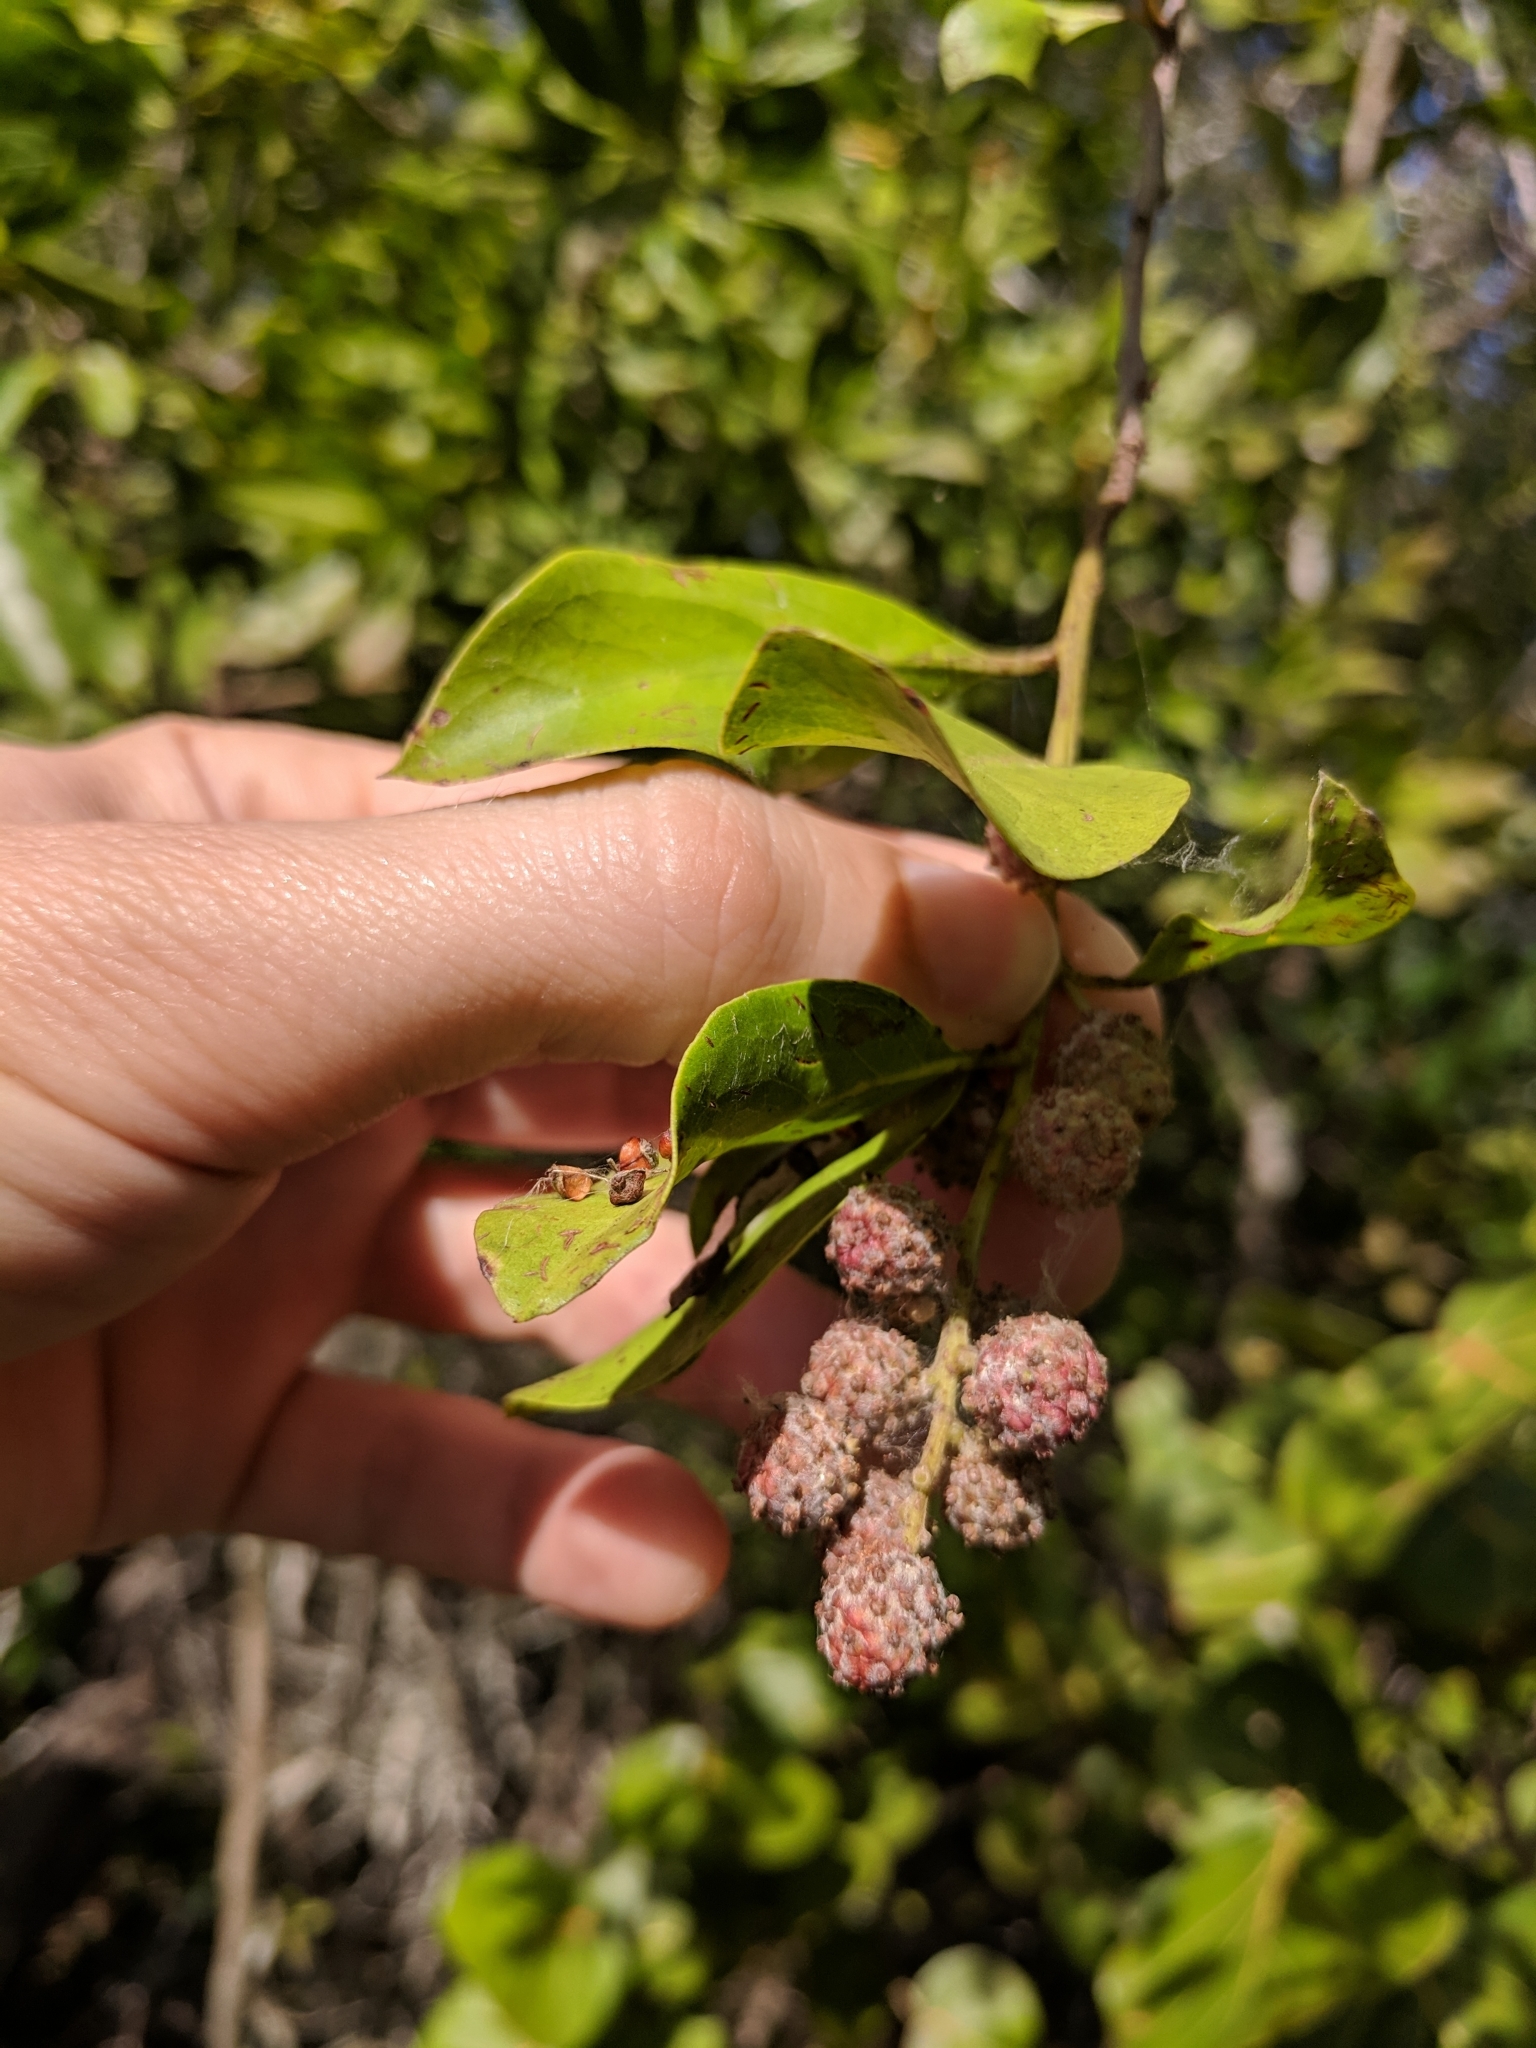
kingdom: Plantae
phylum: Tracheophyta
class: Magnoliopsida
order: Myrtales
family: Combretaceae
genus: Conocarpus
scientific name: Conocarpus erectus
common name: Button mangrove
